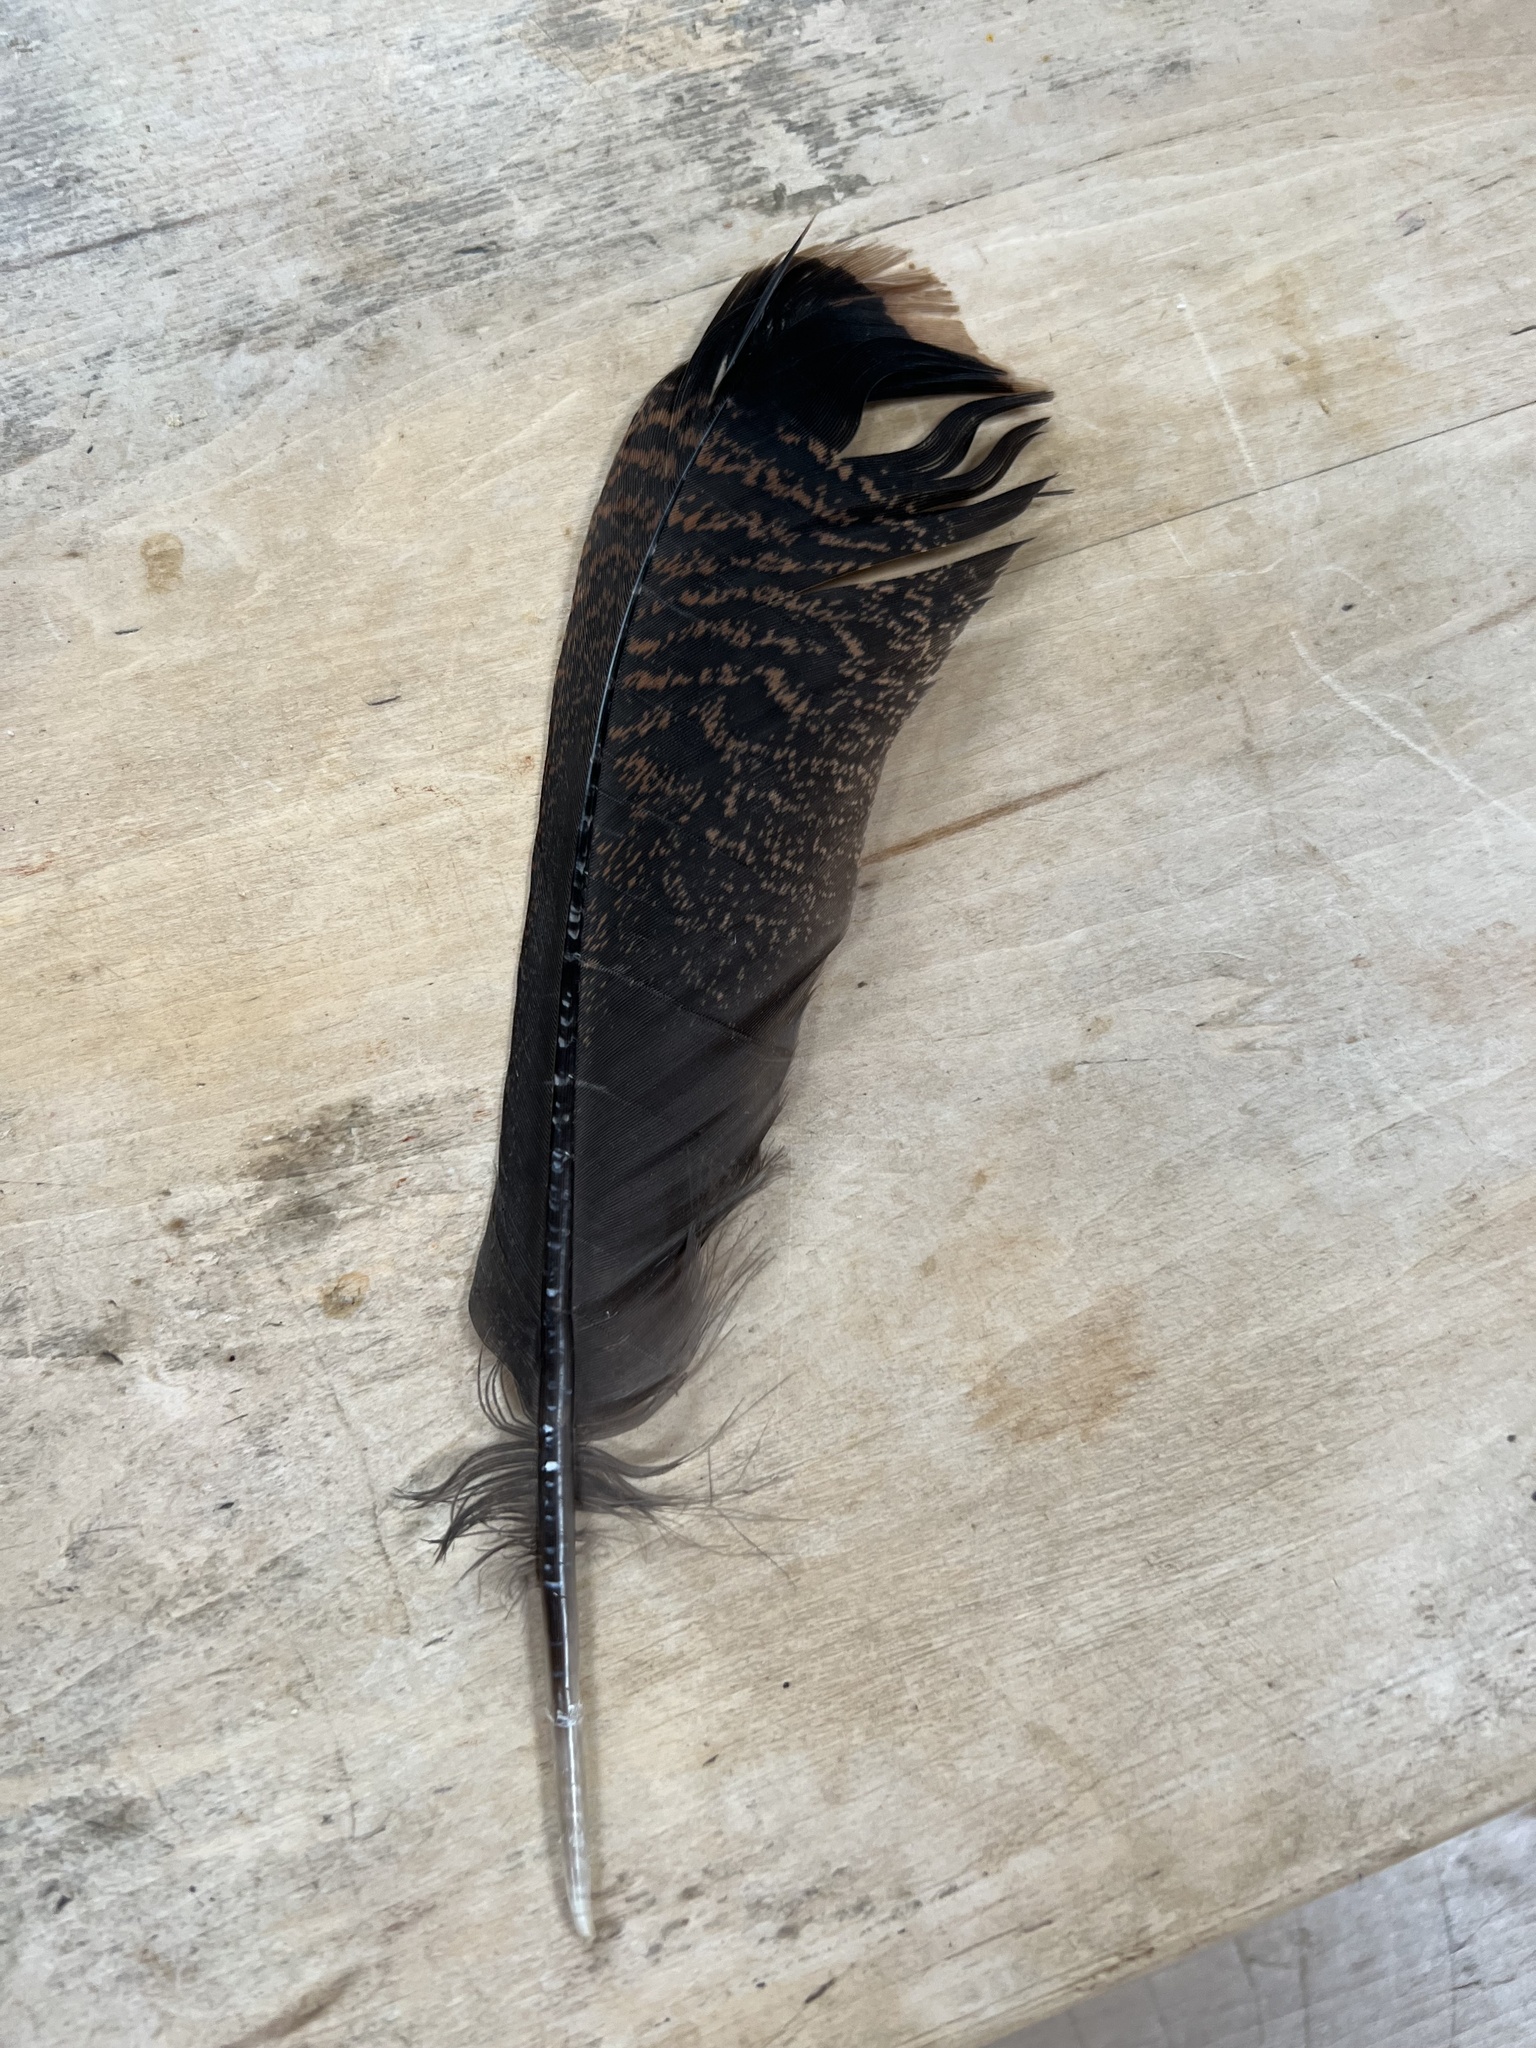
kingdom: Animalia
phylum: Chordata
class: Aves
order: Galliformes
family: Phasianidae
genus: Meleagris
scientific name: Meleagris gallopavo
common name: Wild turkey
